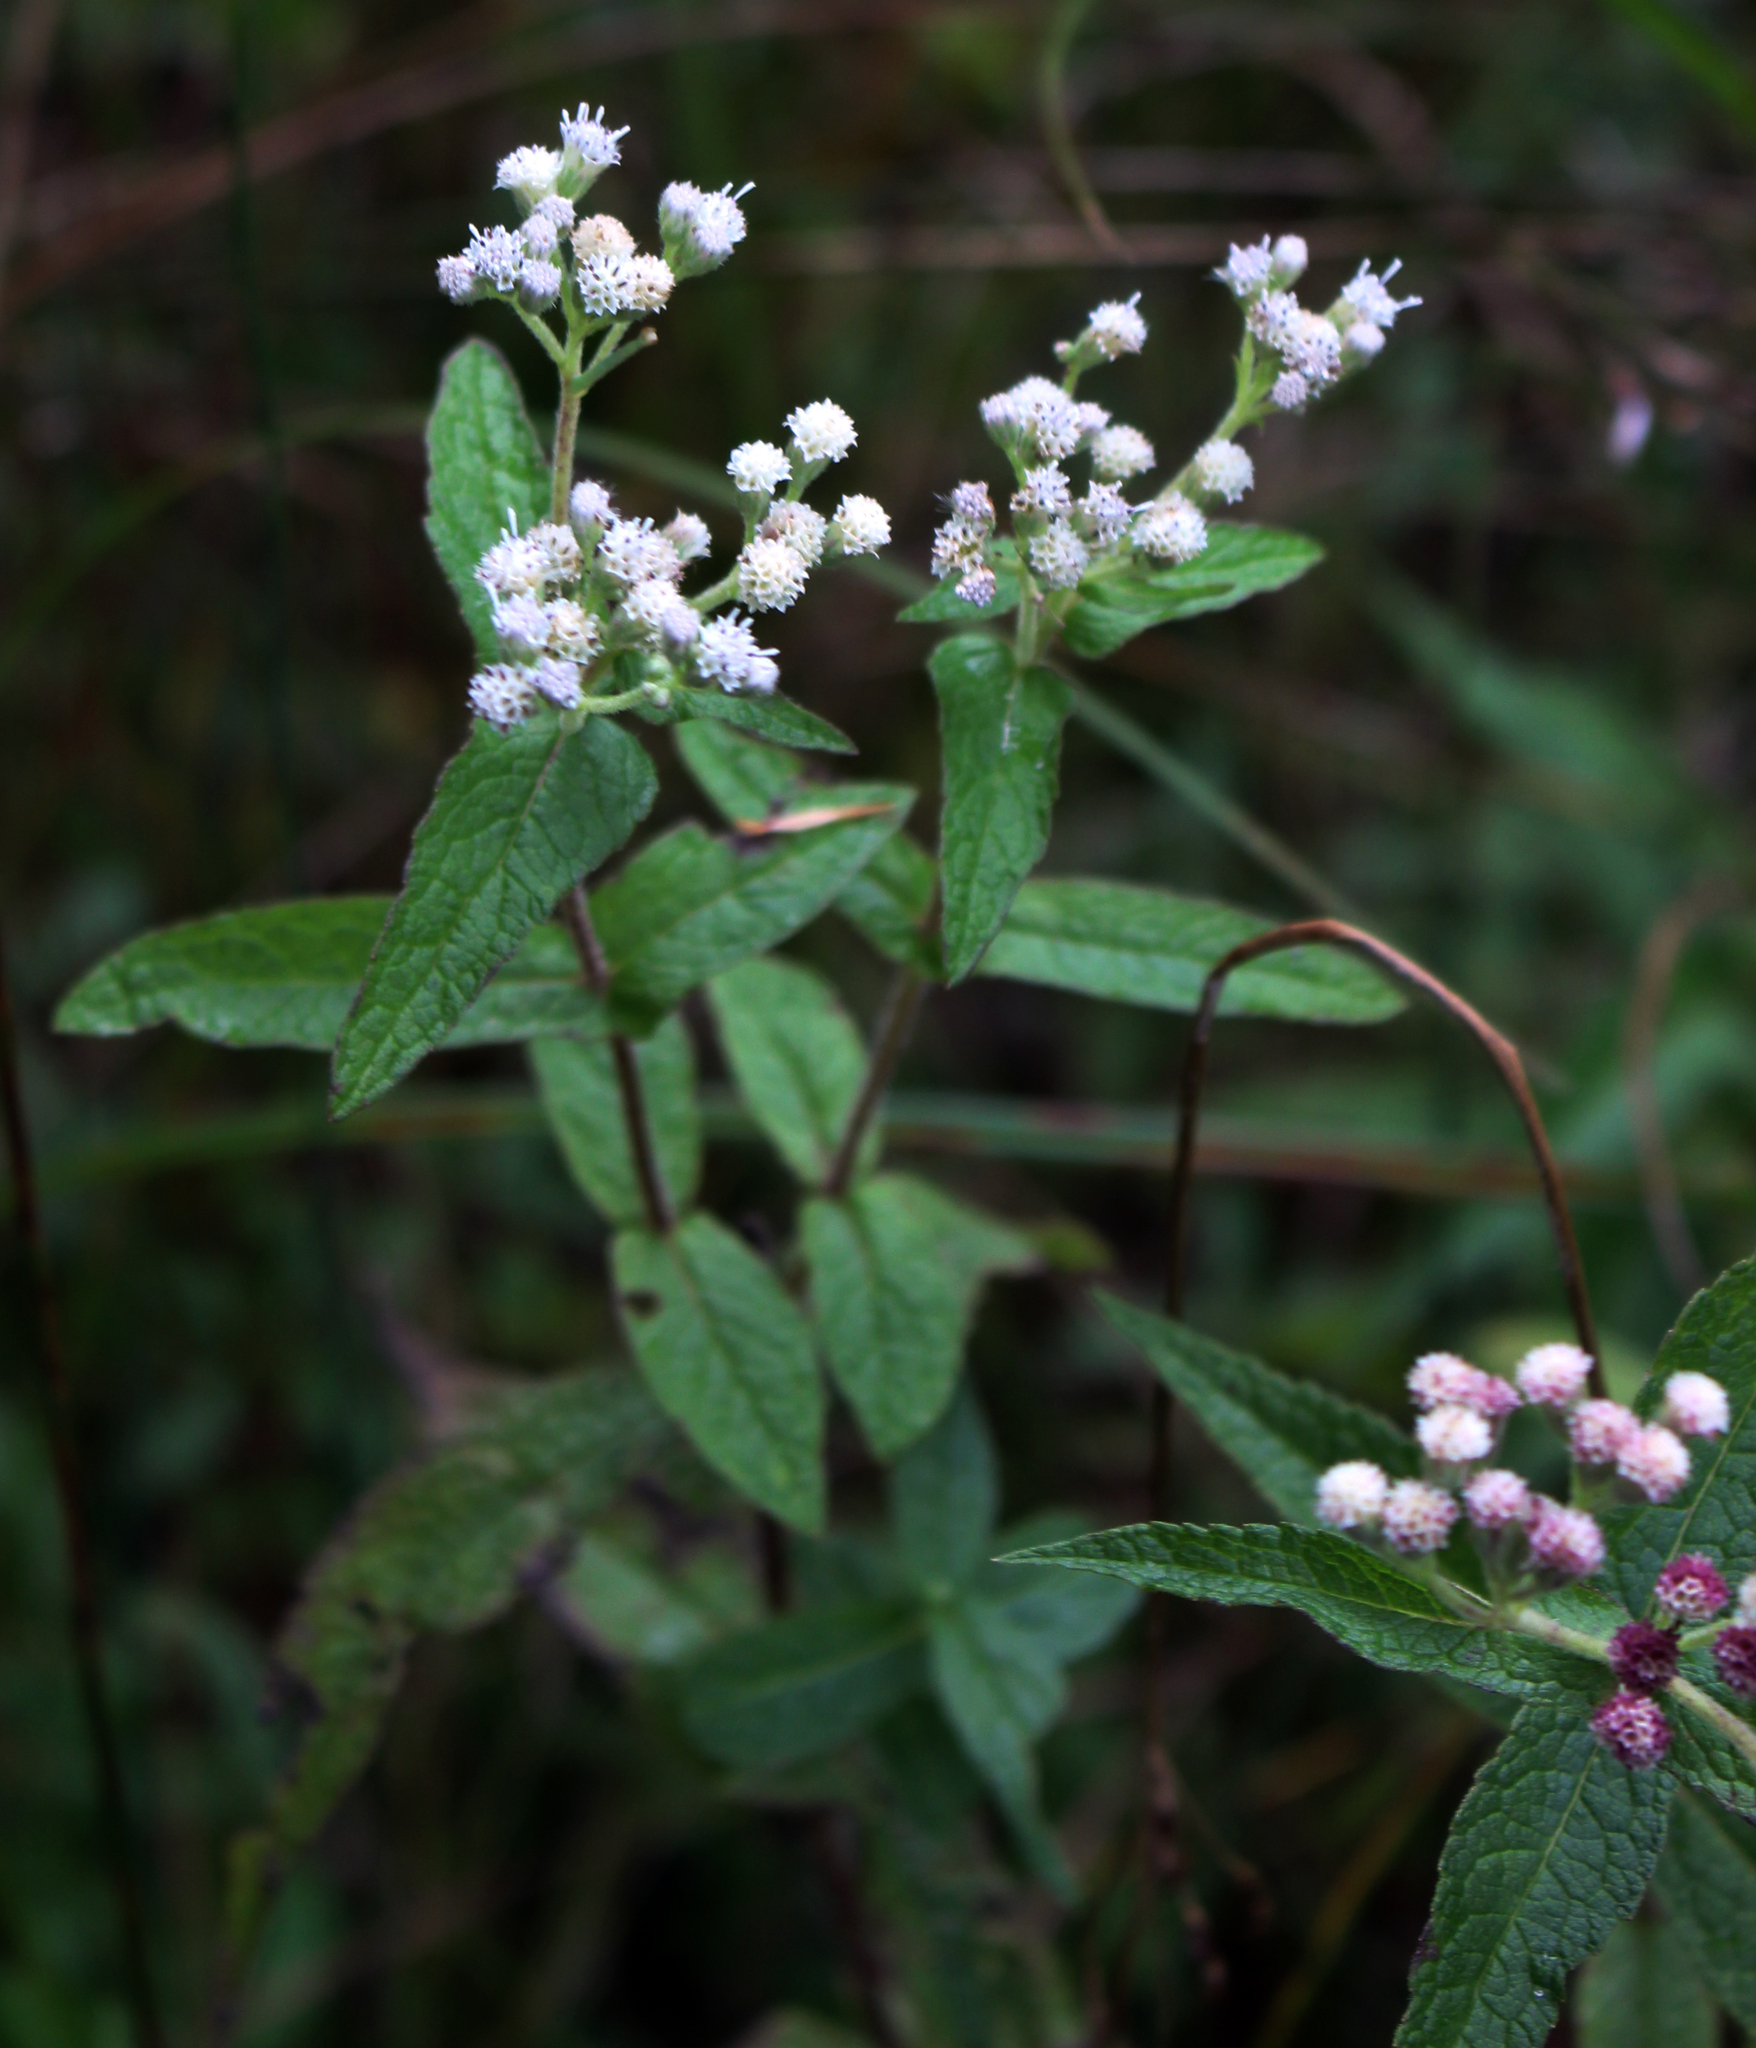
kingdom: Plantae
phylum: Tracheophyta
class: Magnoliopsida
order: Asterales
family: Asteraceae
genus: Eupatorium
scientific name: Eupatorium perfoliatum
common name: Boneset
